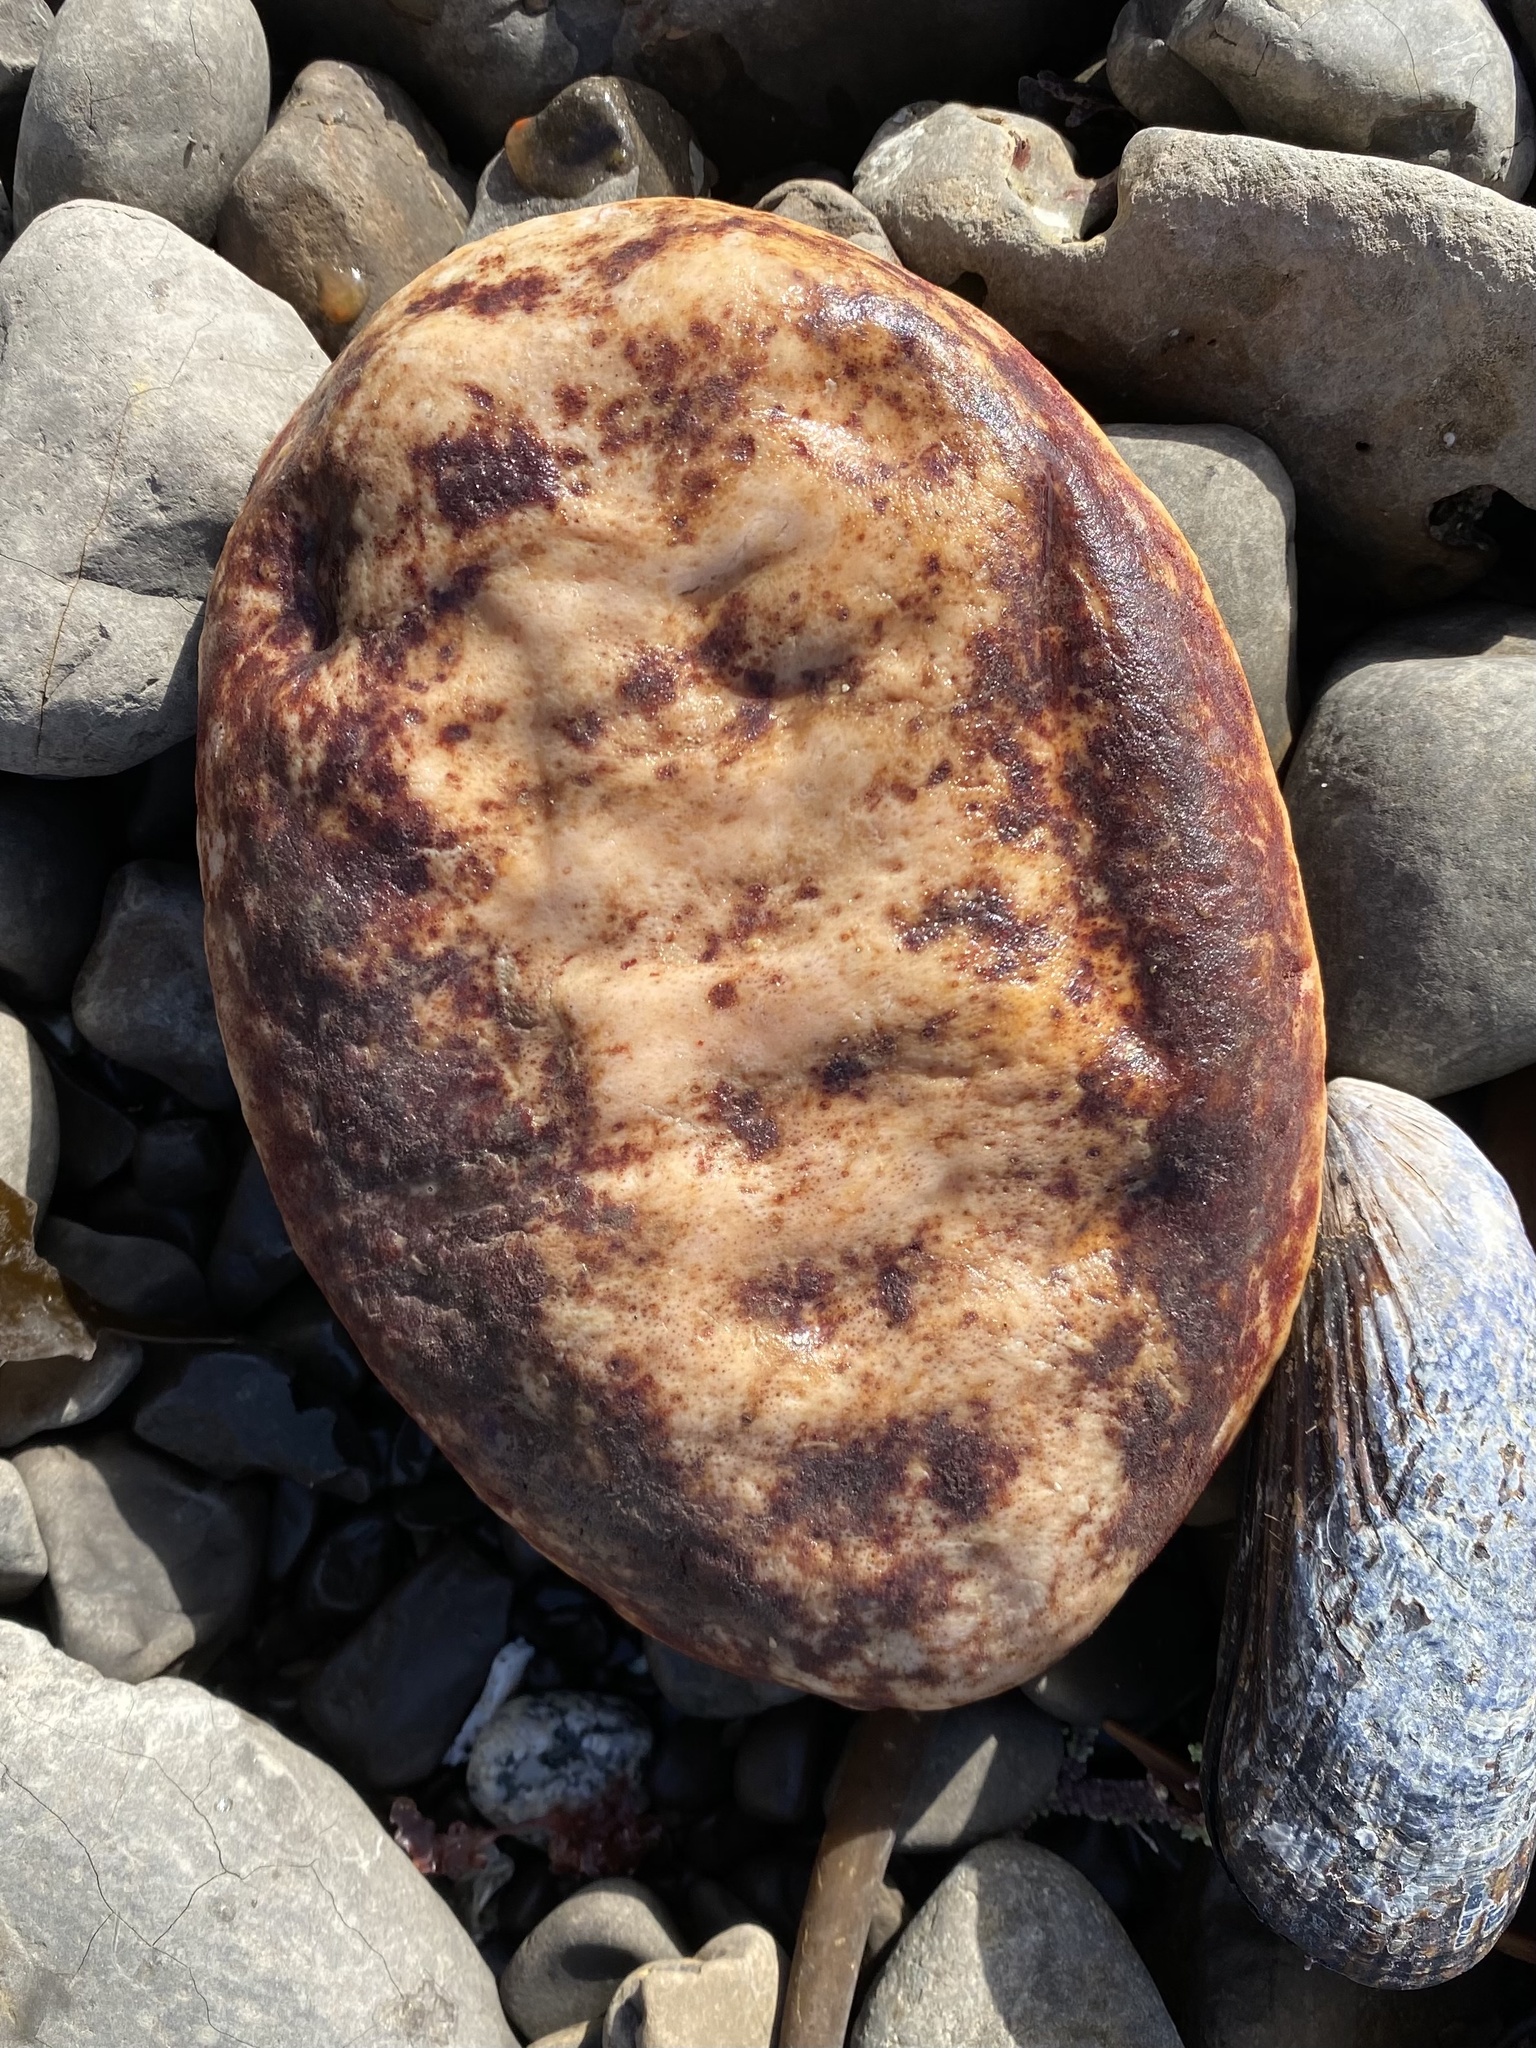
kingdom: Animalia
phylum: Mollusca
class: Polyplacophora
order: Chitonida
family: Acanthochitonidae
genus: Cryptochiton
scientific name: Cryptochiton stelleri
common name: Giant pacific chiton
